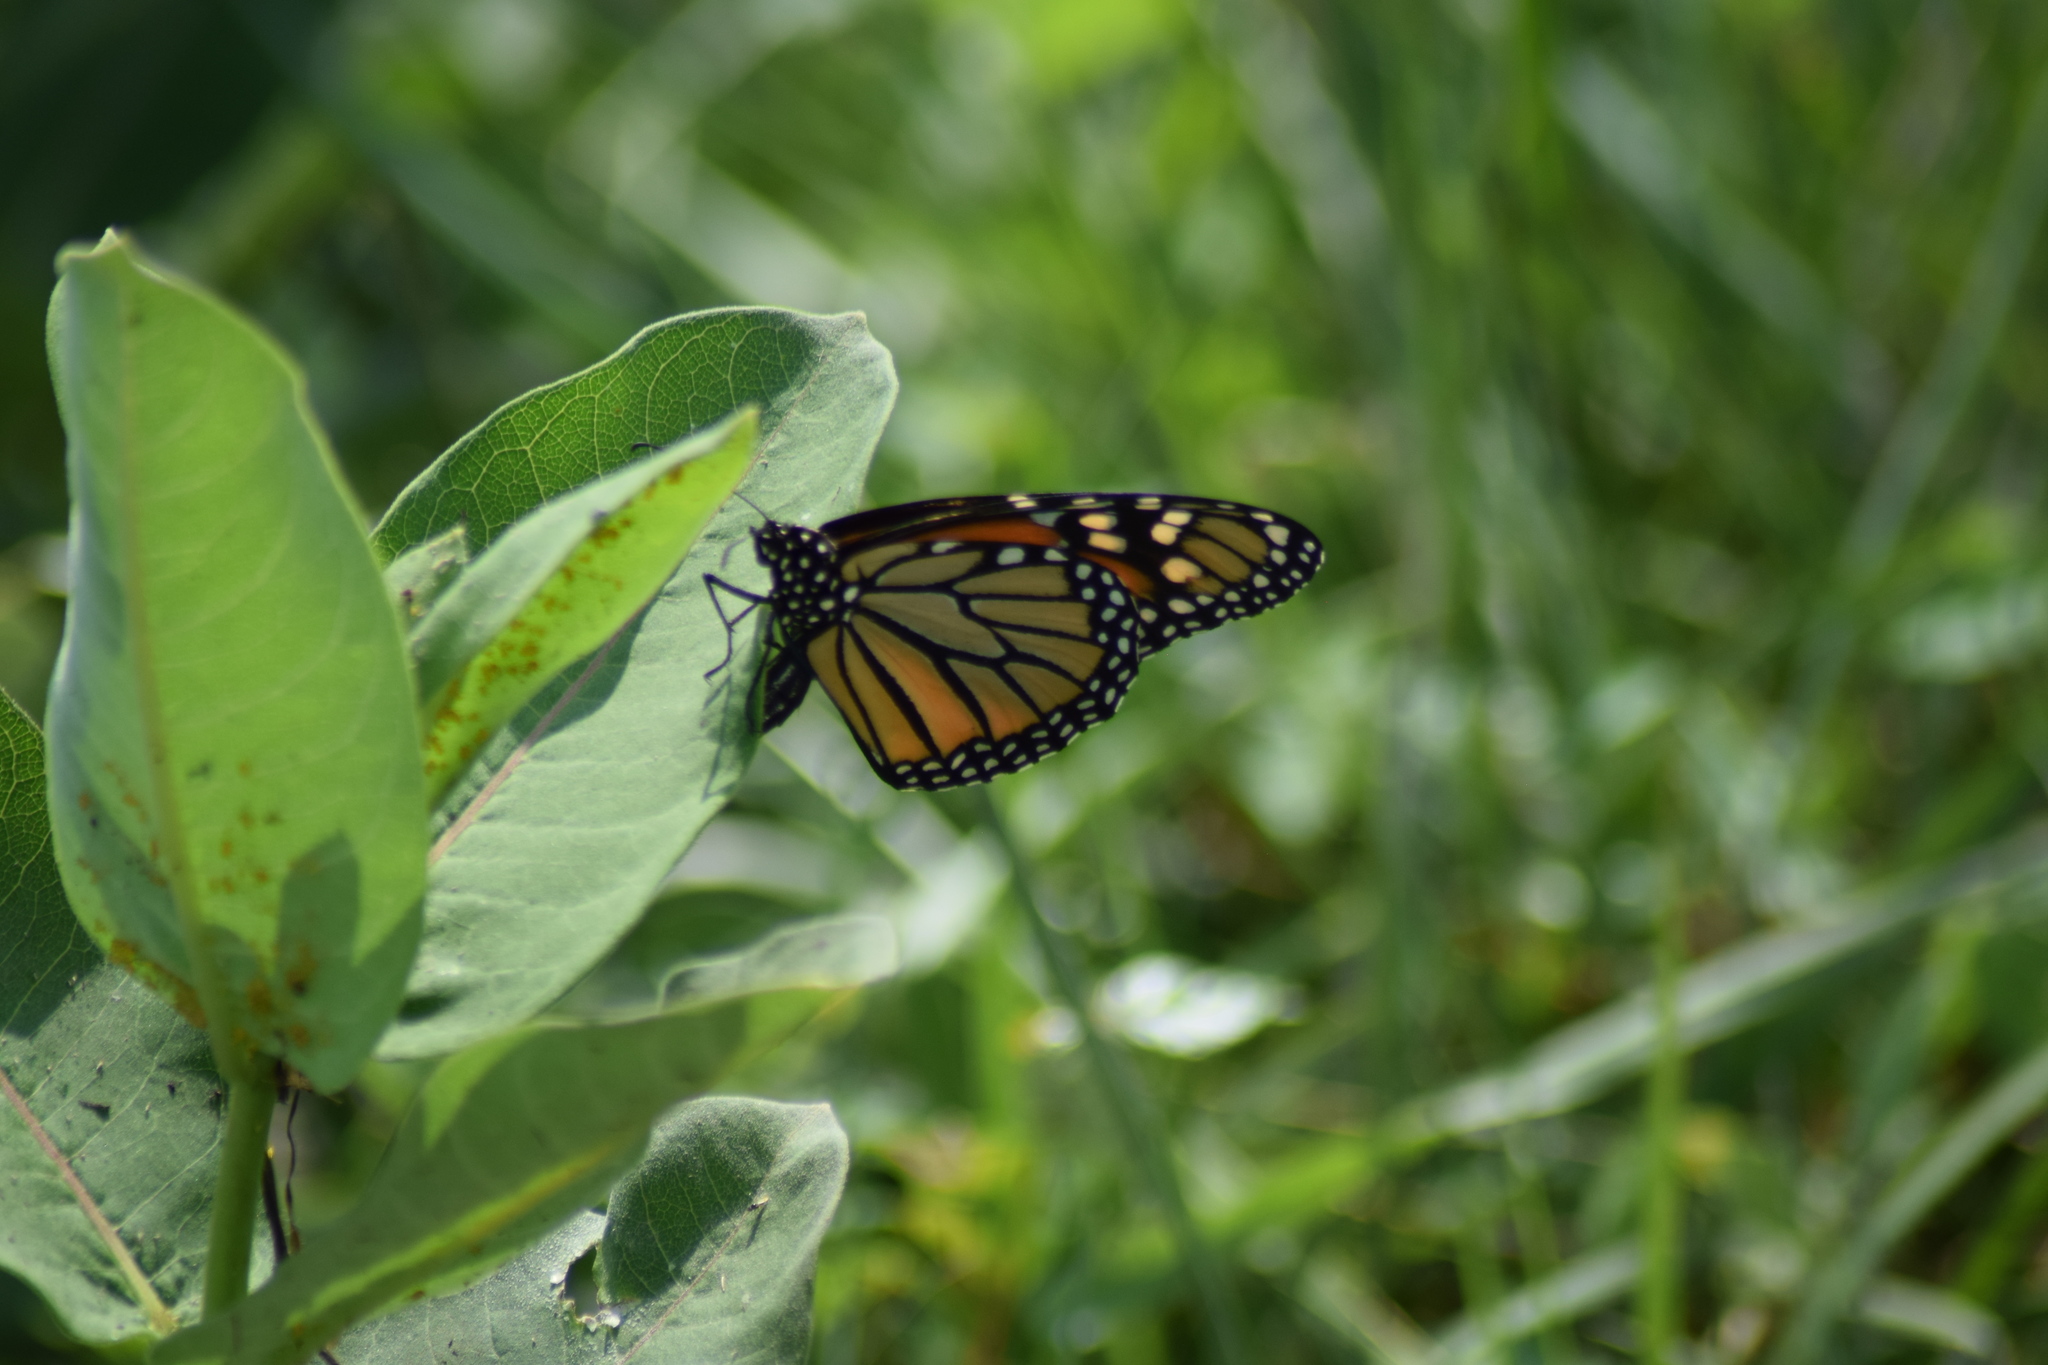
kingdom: Animalia
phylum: Arthropoda
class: Insecta
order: Lepidoptera
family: Nymphalidae
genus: Danaus
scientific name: Danaus plexippus
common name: Monarch
